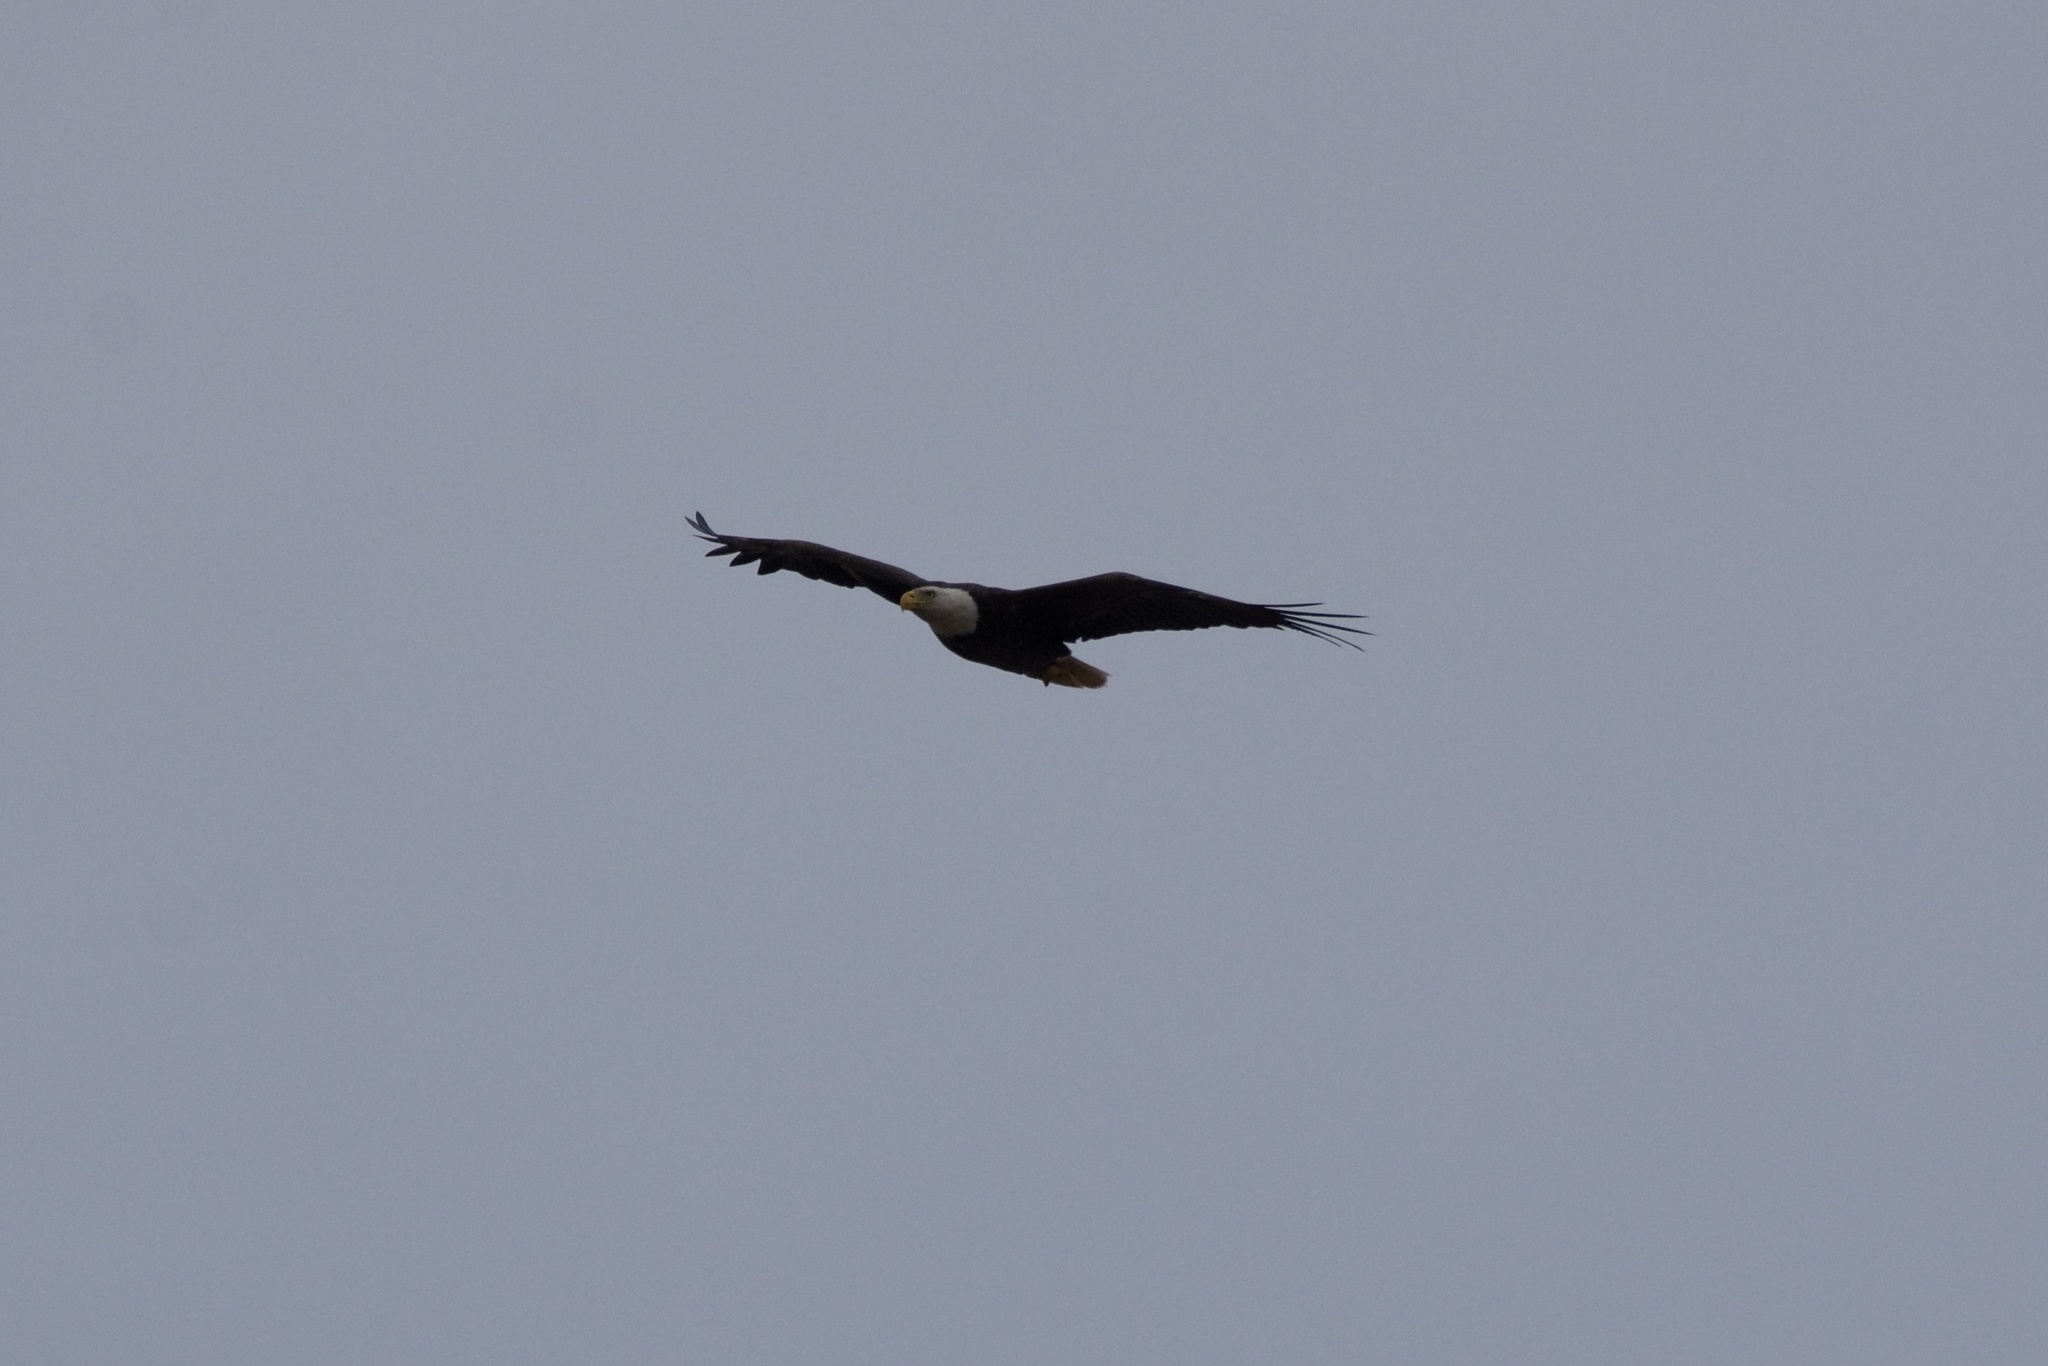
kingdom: Animalia
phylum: Chordata
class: Aves
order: Accipitriformes
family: Accipitridae
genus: Haliaeetus
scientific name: Haliaeetus leucocephalus
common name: Bald eagle
